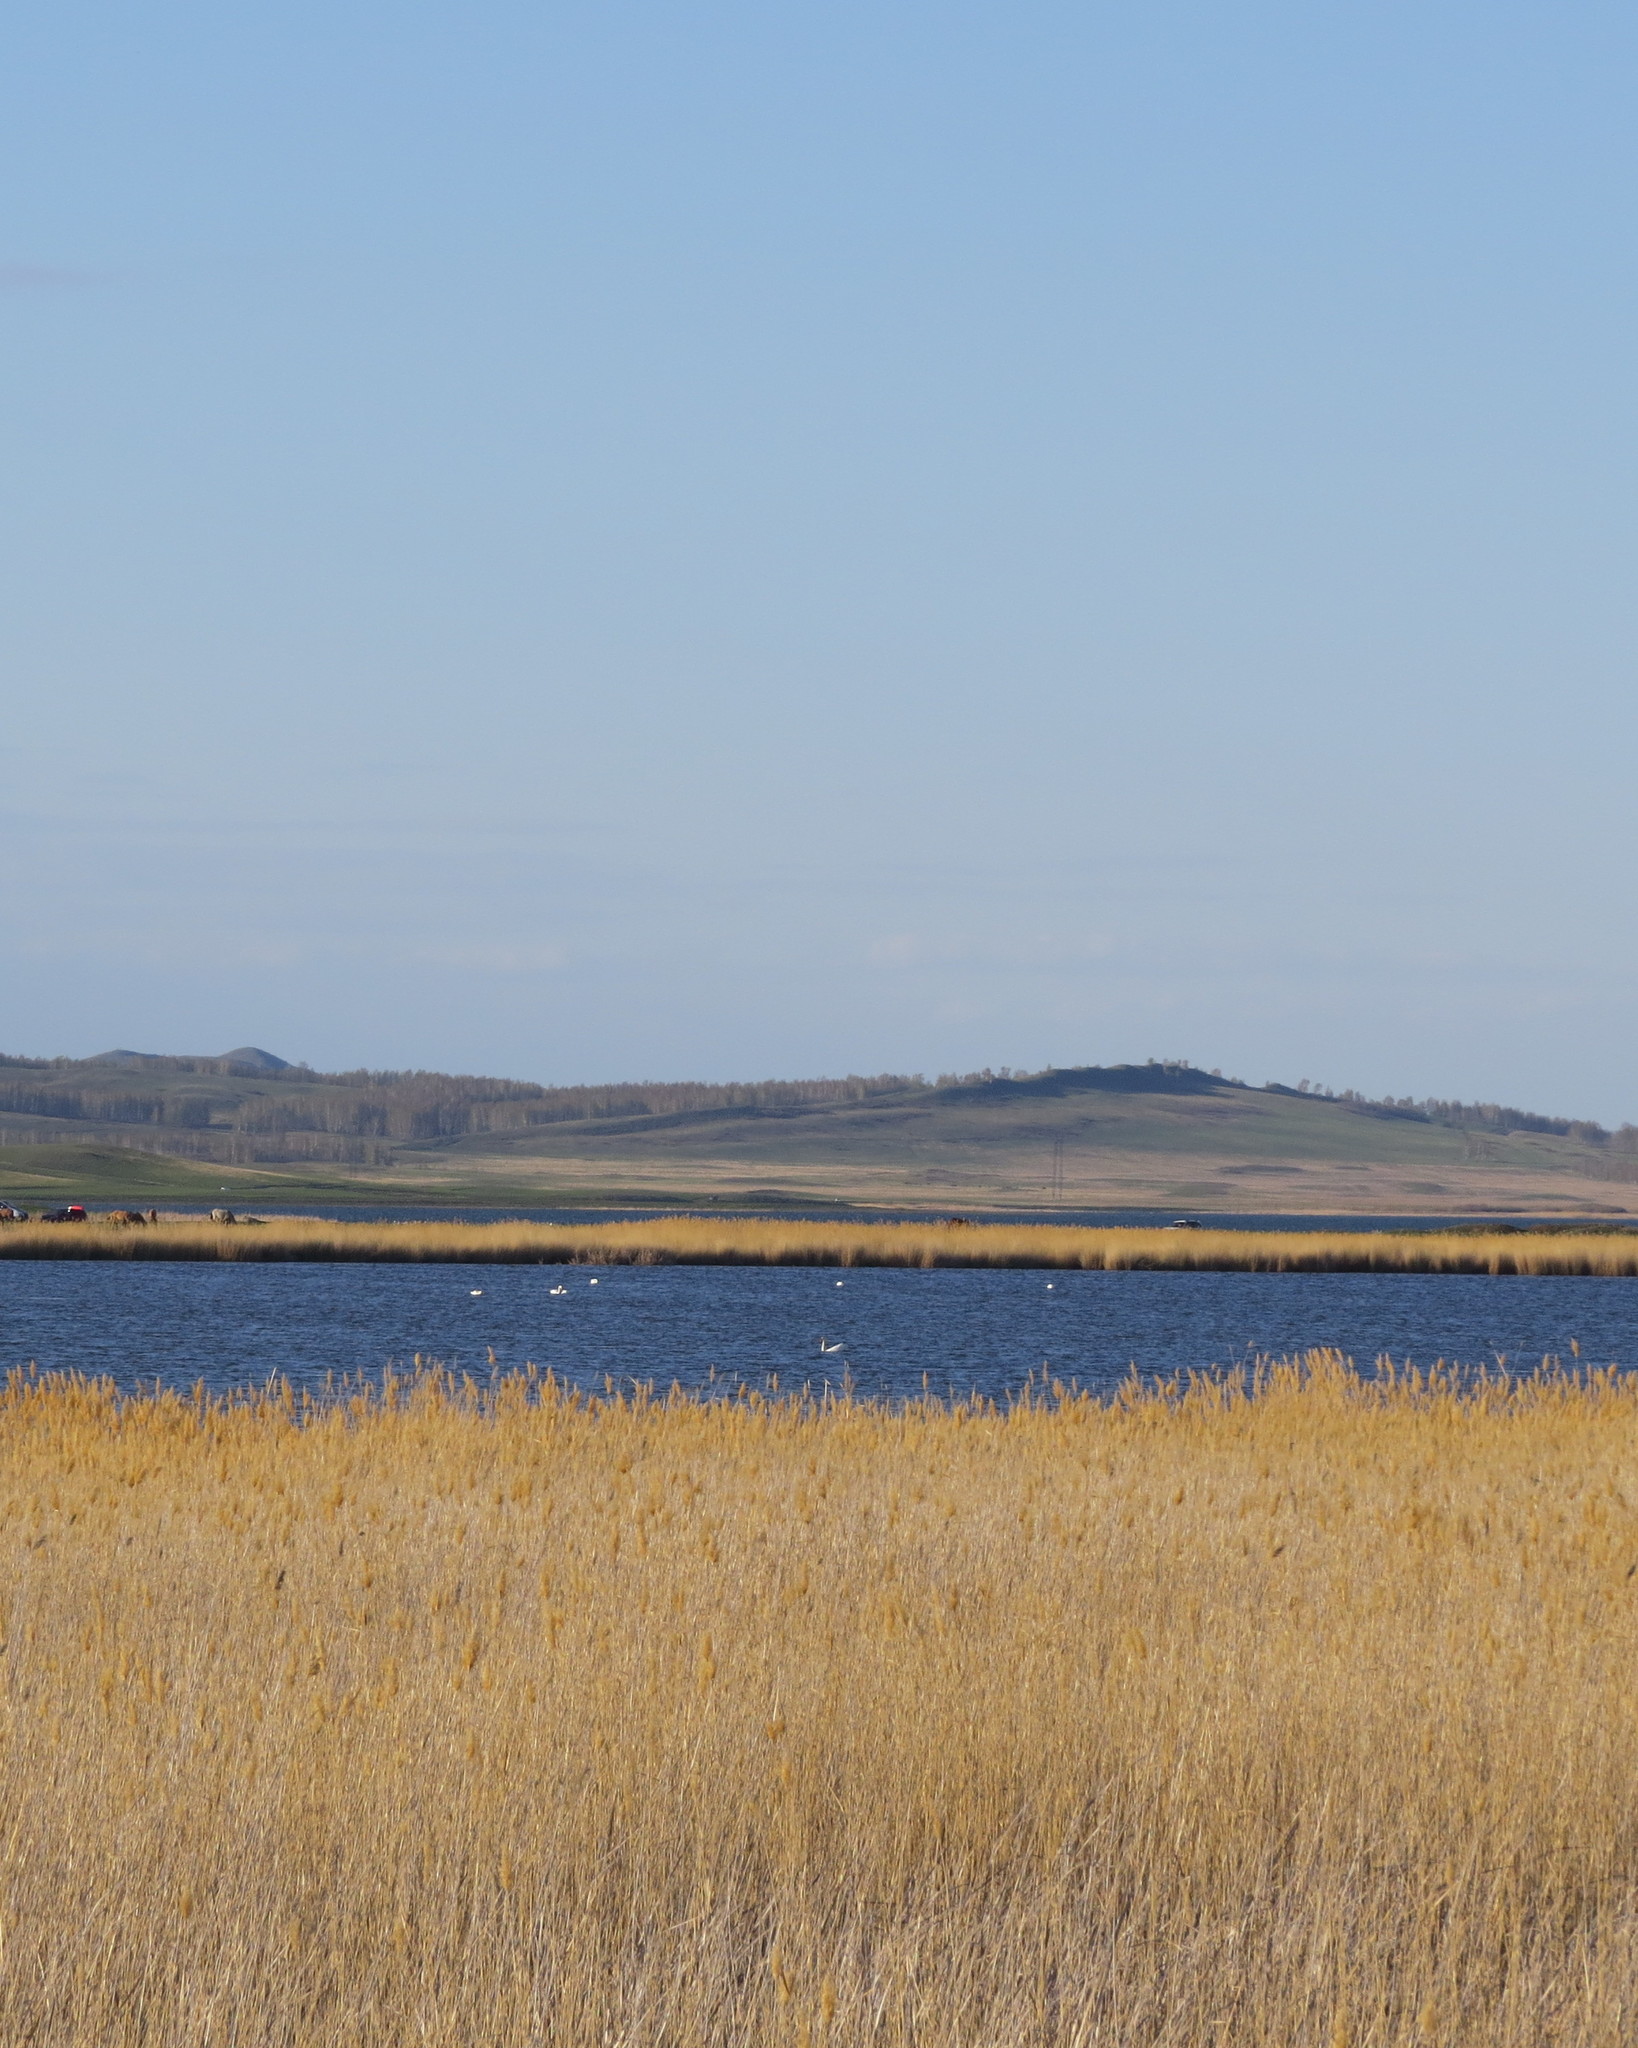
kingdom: Animalia
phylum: Chordata
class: Aves
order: Anseriformes
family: Anatidae
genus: Cygnus
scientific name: Cygnus olor
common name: Mute swan
